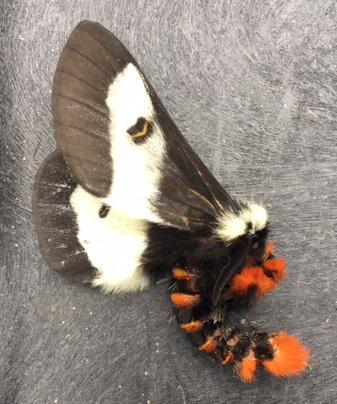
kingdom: Animalia
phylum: Arthropoda
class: Insecta
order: Lepidoptera
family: Saturniidae
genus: Hemileuca
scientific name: Hemileuca maia
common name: Eastern buckmoth
